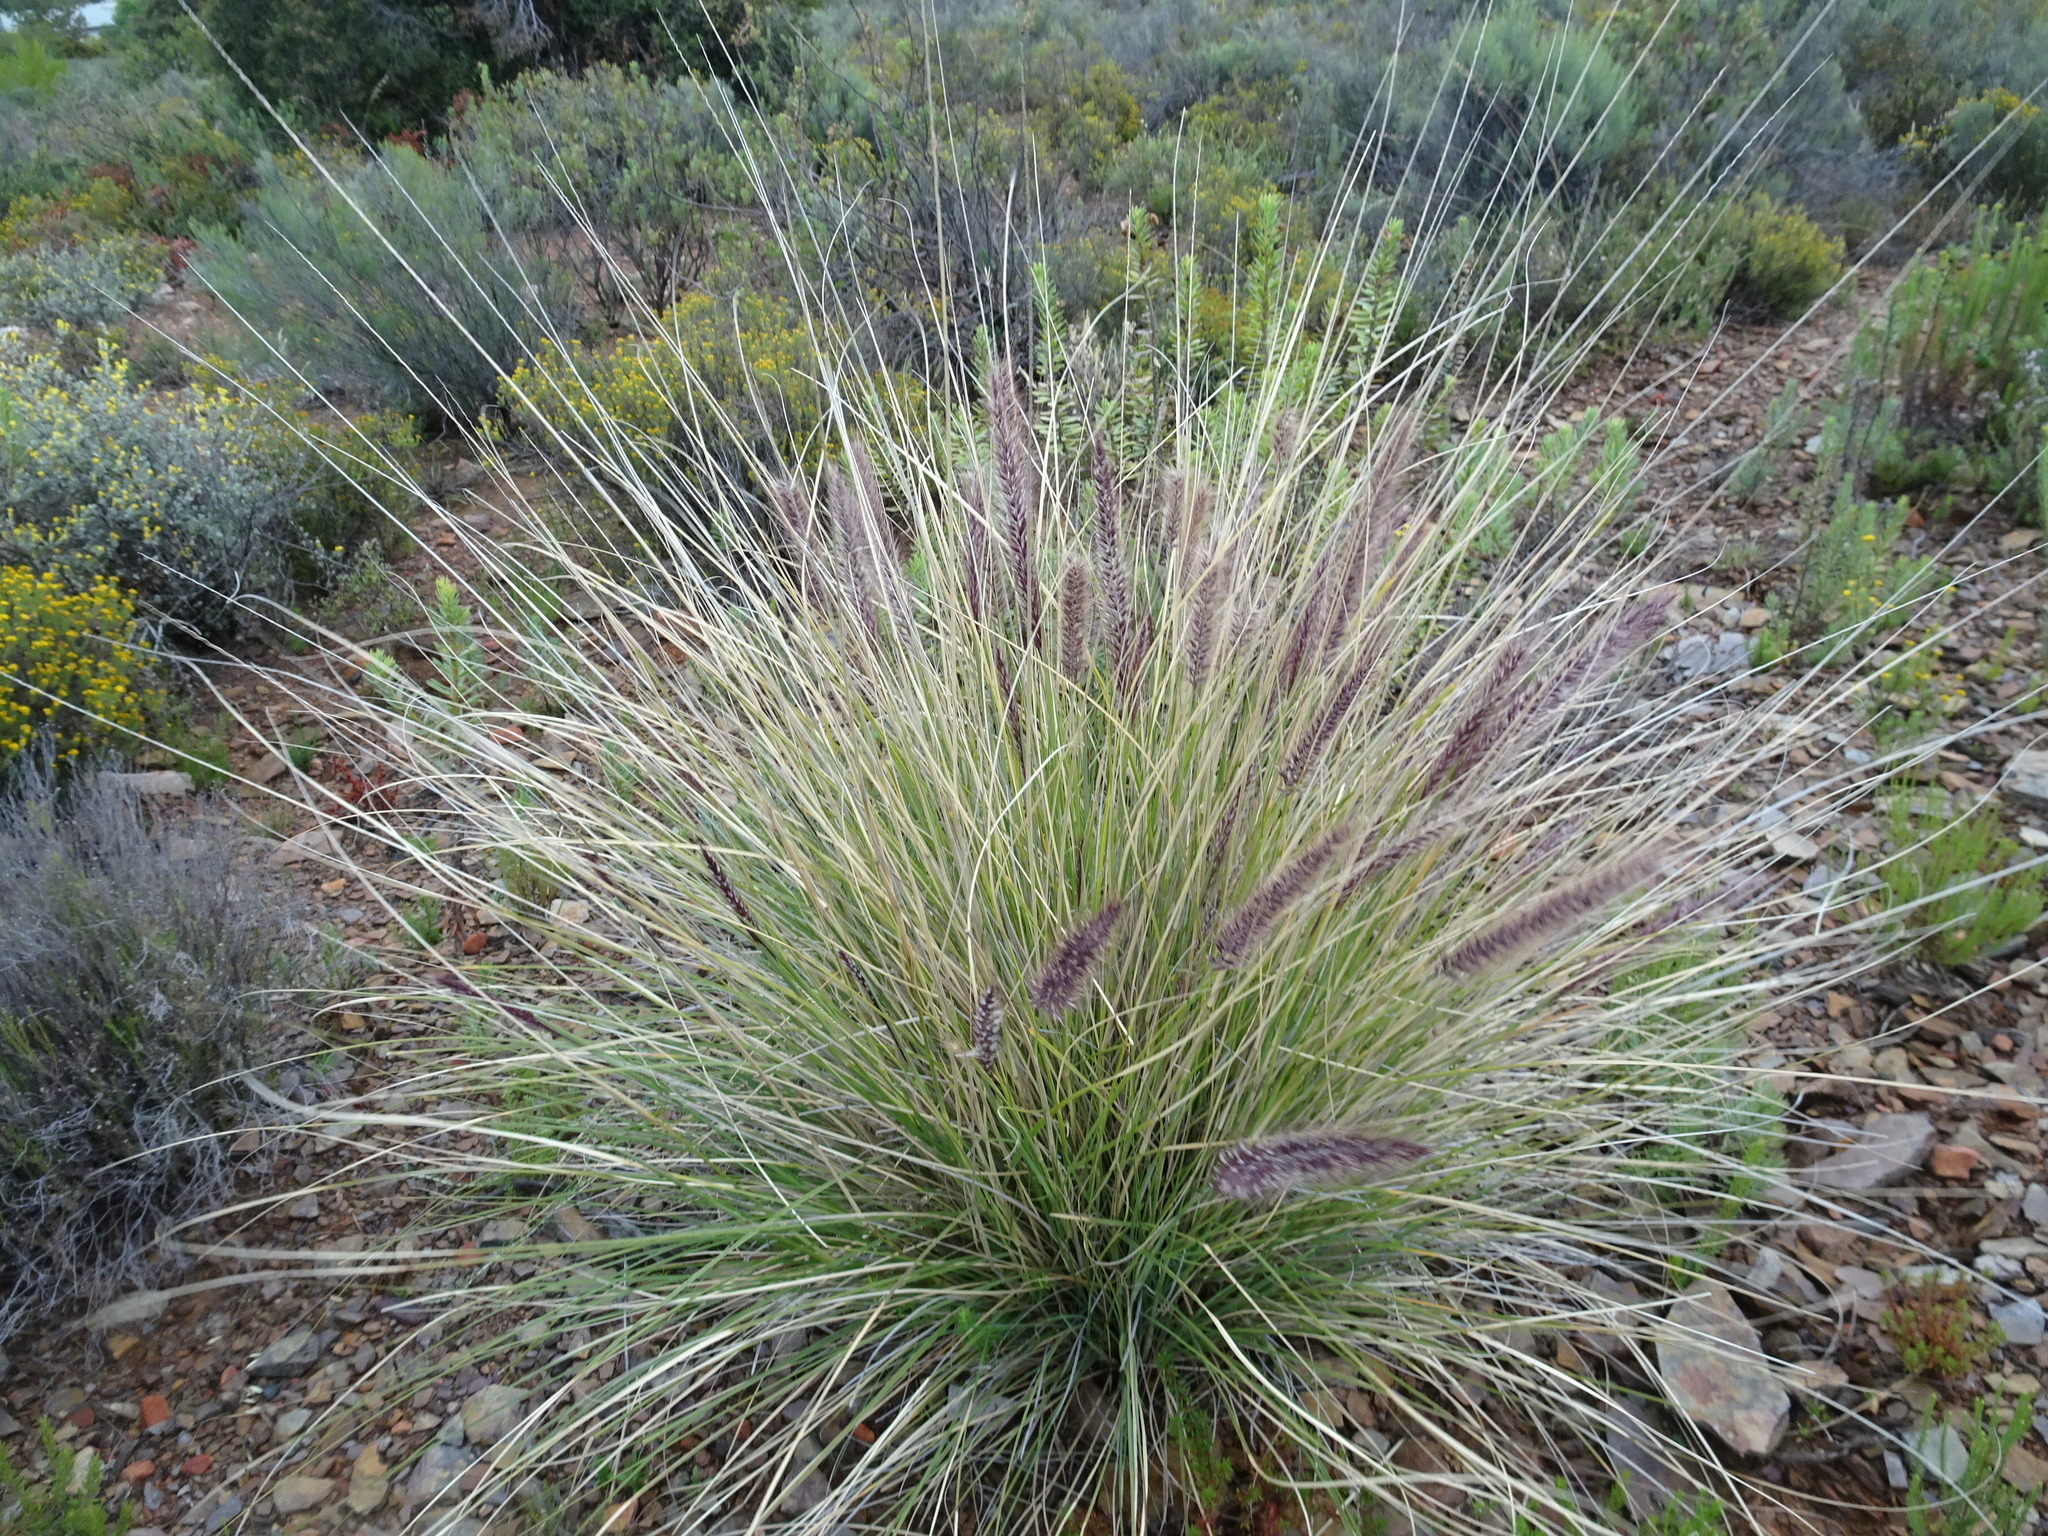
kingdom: Plantae
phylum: Tracheophyta
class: Liliopsida
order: Poales
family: Poaceae
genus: Cenchrus
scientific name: Cenchrus setaceus
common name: Crimson fountaingrass
